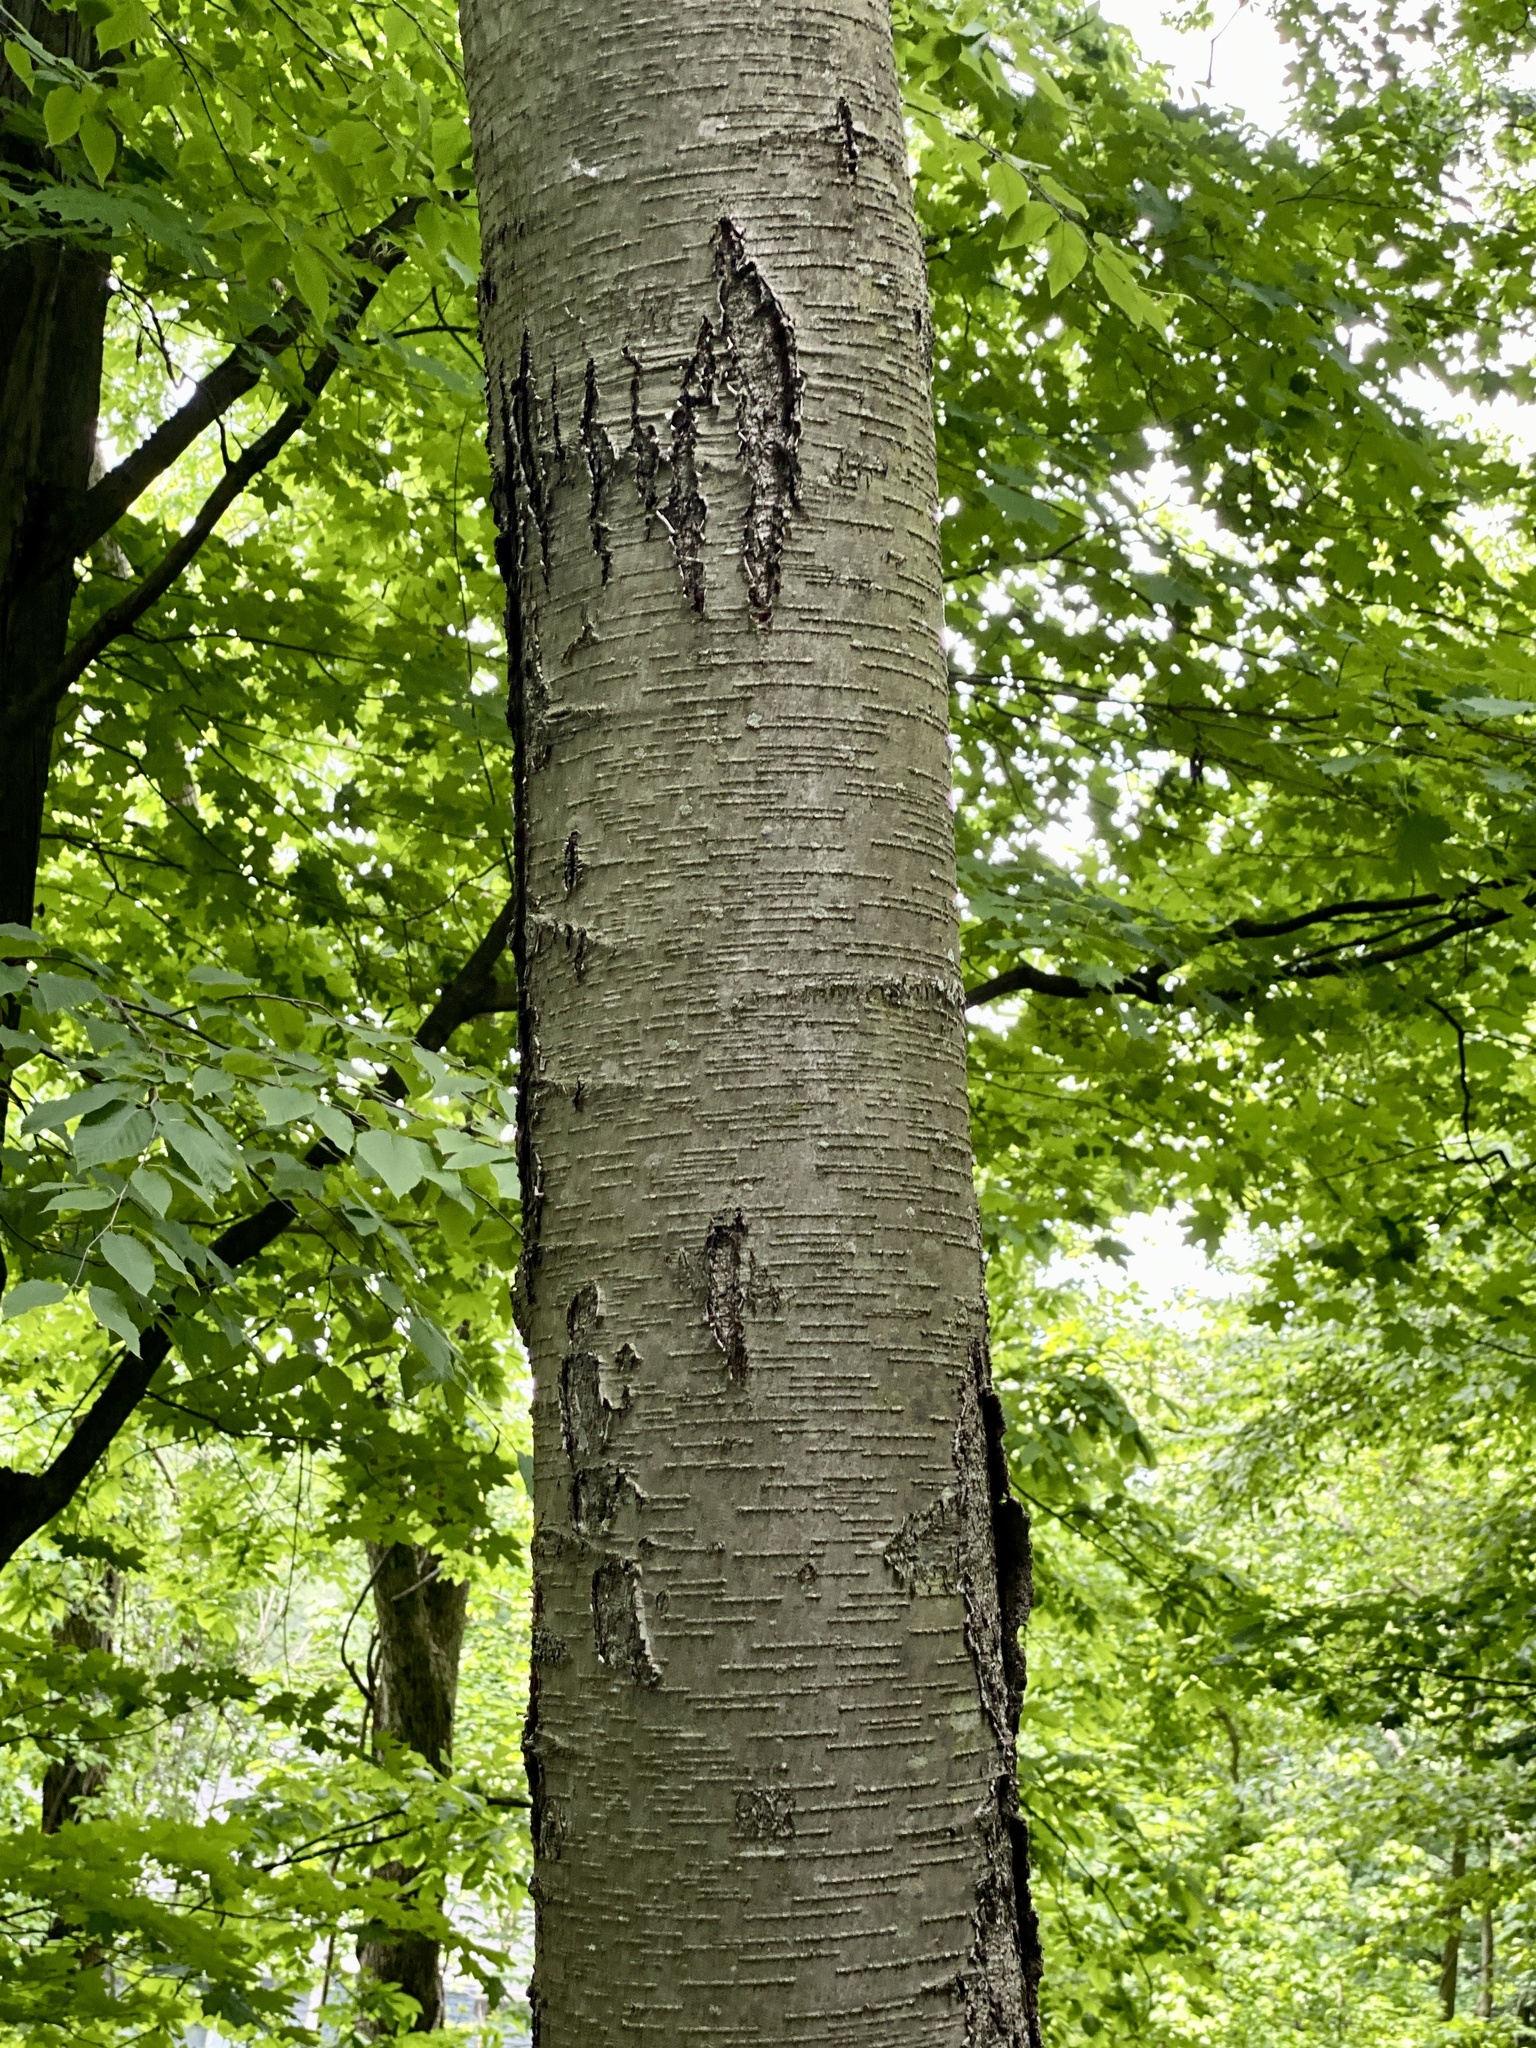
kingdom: Plantae
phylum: Tracheophyta
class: Magnoliopsida
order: Fagales
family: Betulaceae
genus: Betula
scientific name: Betula lenta
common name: Black birch
